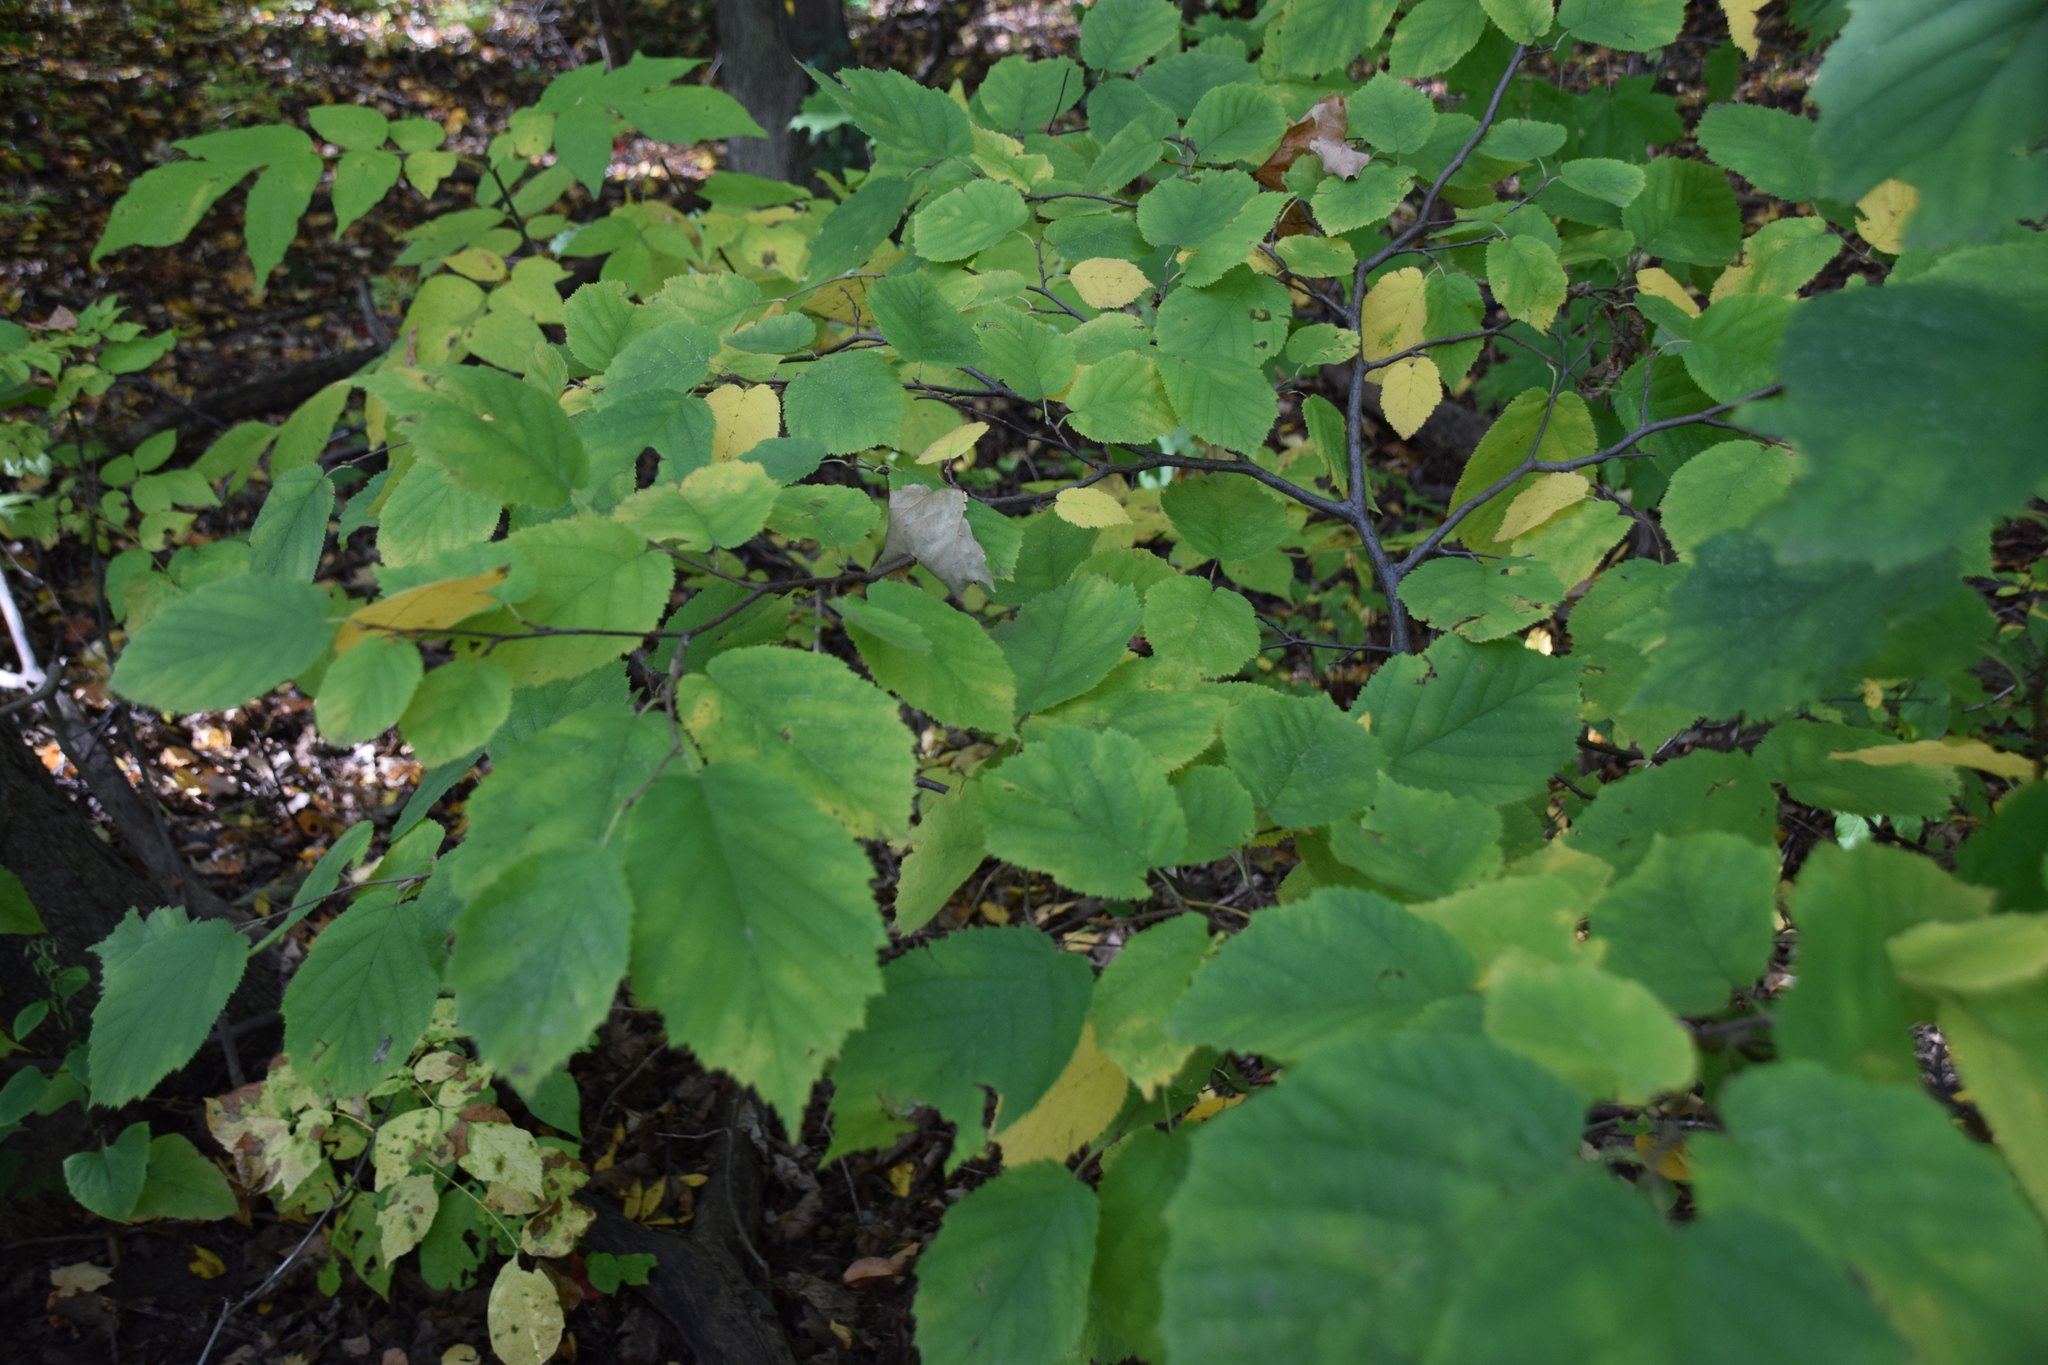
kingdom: Plantae
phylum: Tracheophyta
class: Magnoliopsida
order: Fagales
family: Betulaceae
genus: Corylus
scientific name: Corylus cornuta
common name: Beaked hazel
